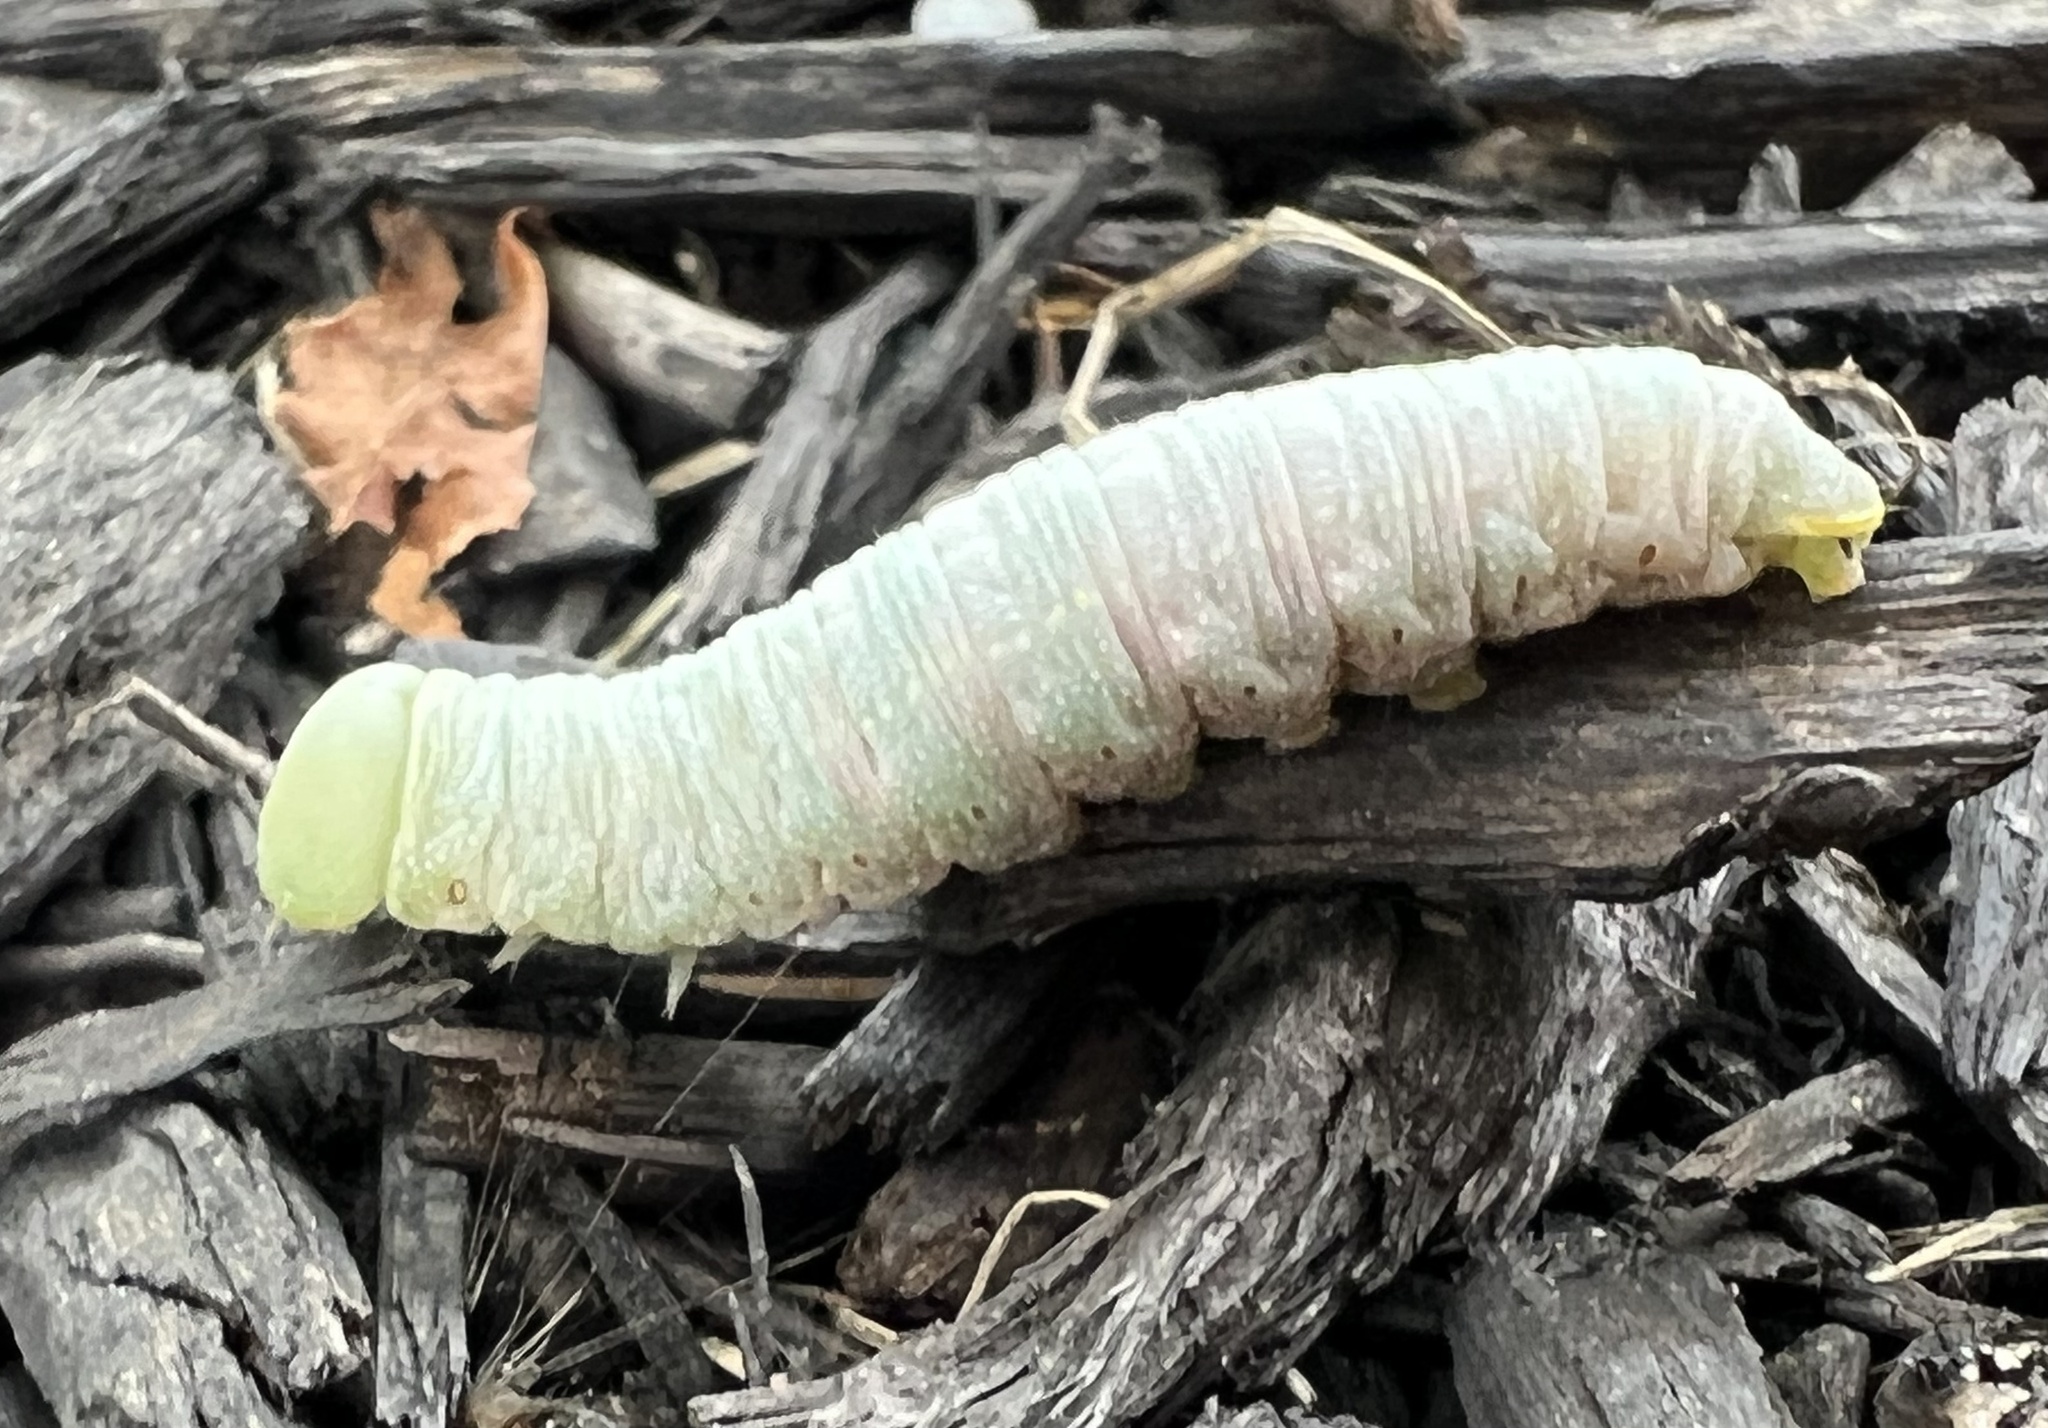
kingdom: Animalia
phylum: Arthropoda
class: Insecta
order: Lepidoptera
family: Notodontidae
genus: Nadata
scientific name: Nadata gibbosa
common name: White-dotted prominent
